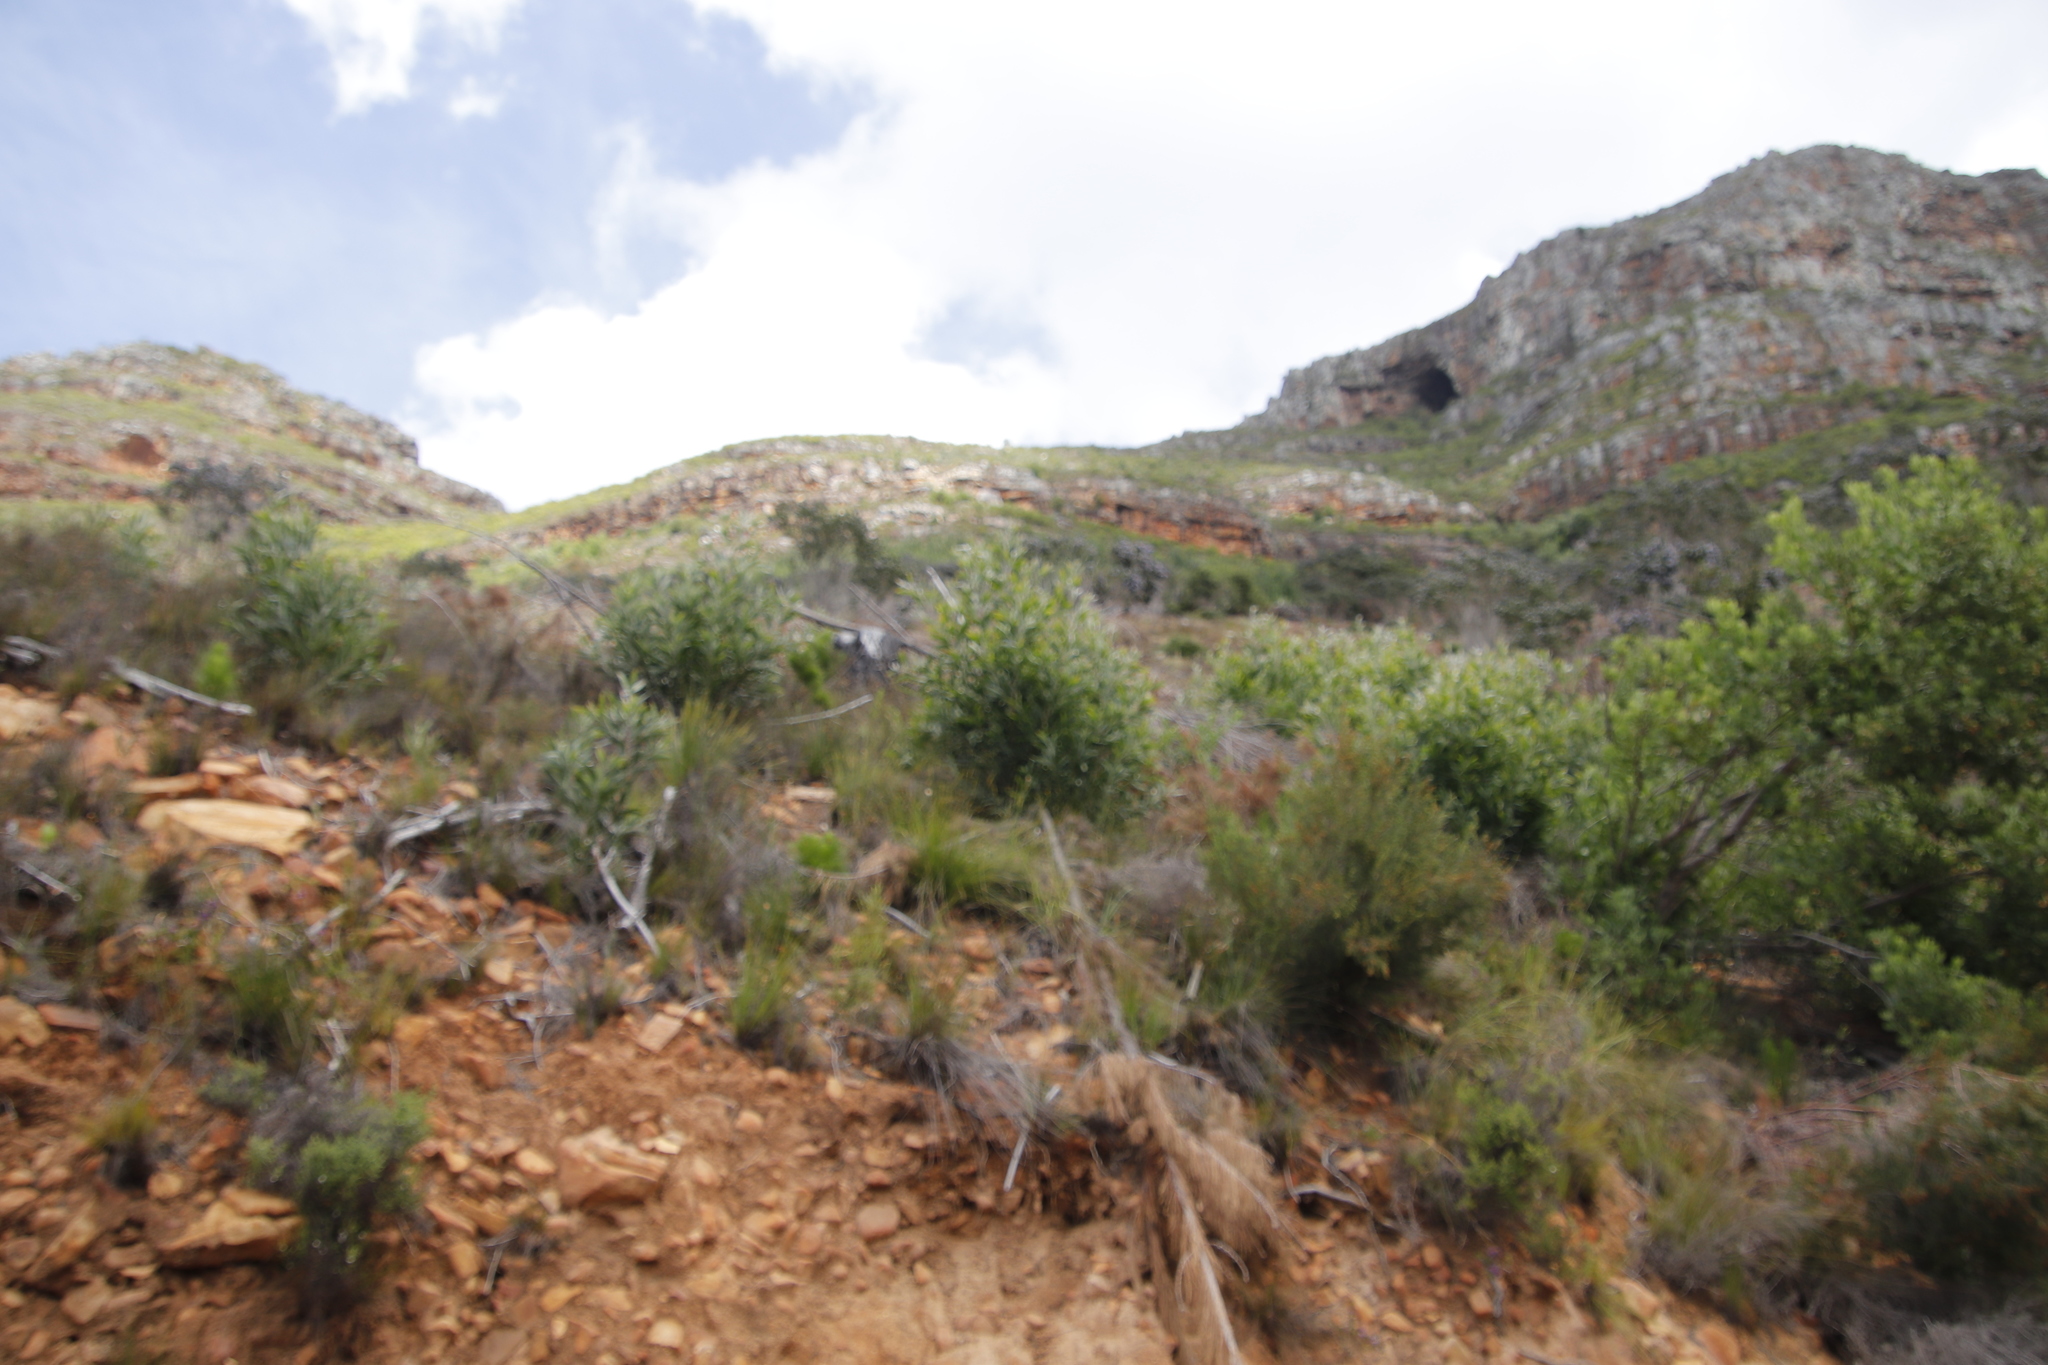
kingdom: Plantae
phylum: Tracheophyta
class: Magnoliopsida
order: Fabales
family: Fabaceae
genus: Acacia
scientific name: Acacia melanoxylon
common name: Blackwood
